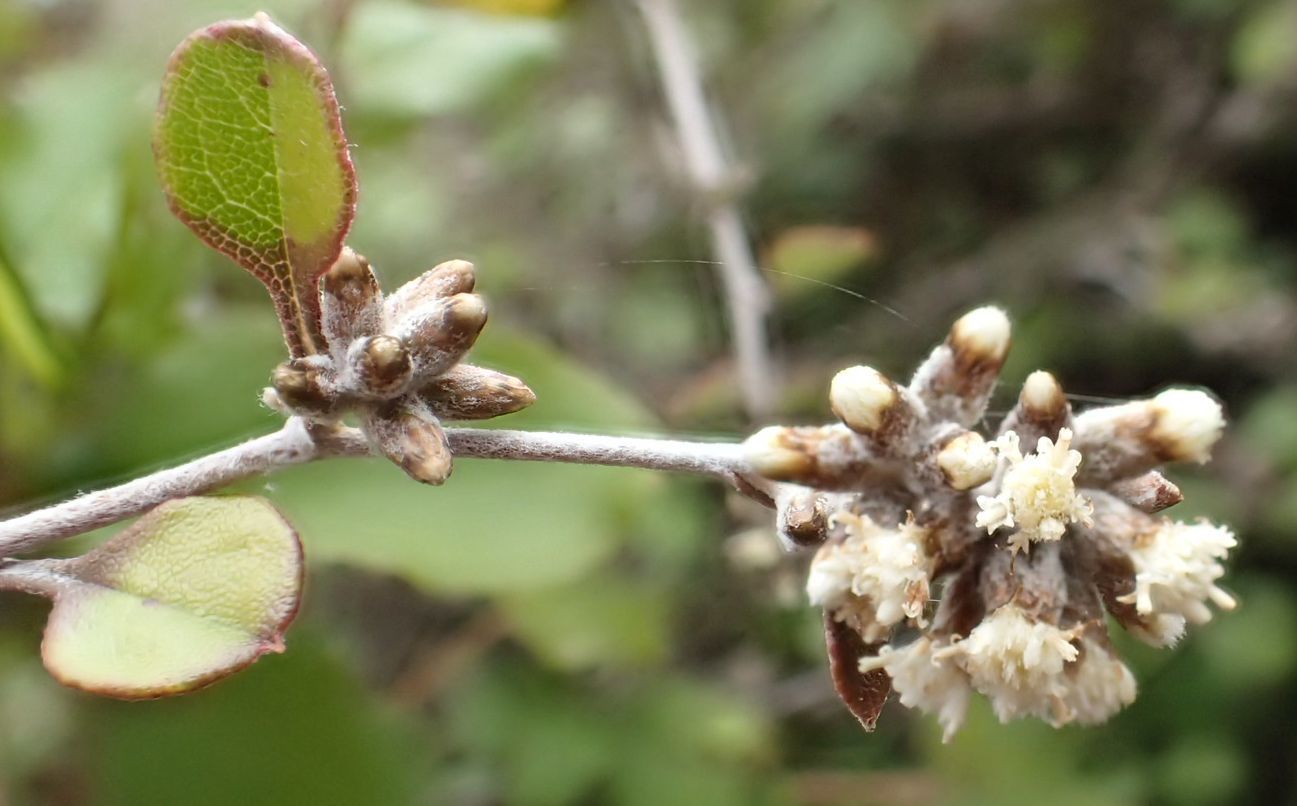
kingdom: Plantae
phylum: Tracheophyta
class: Magnoliopsida
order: Asterales
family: Asteraceae
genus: Ozothamnus
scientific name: Ozothamnus glomeratus
